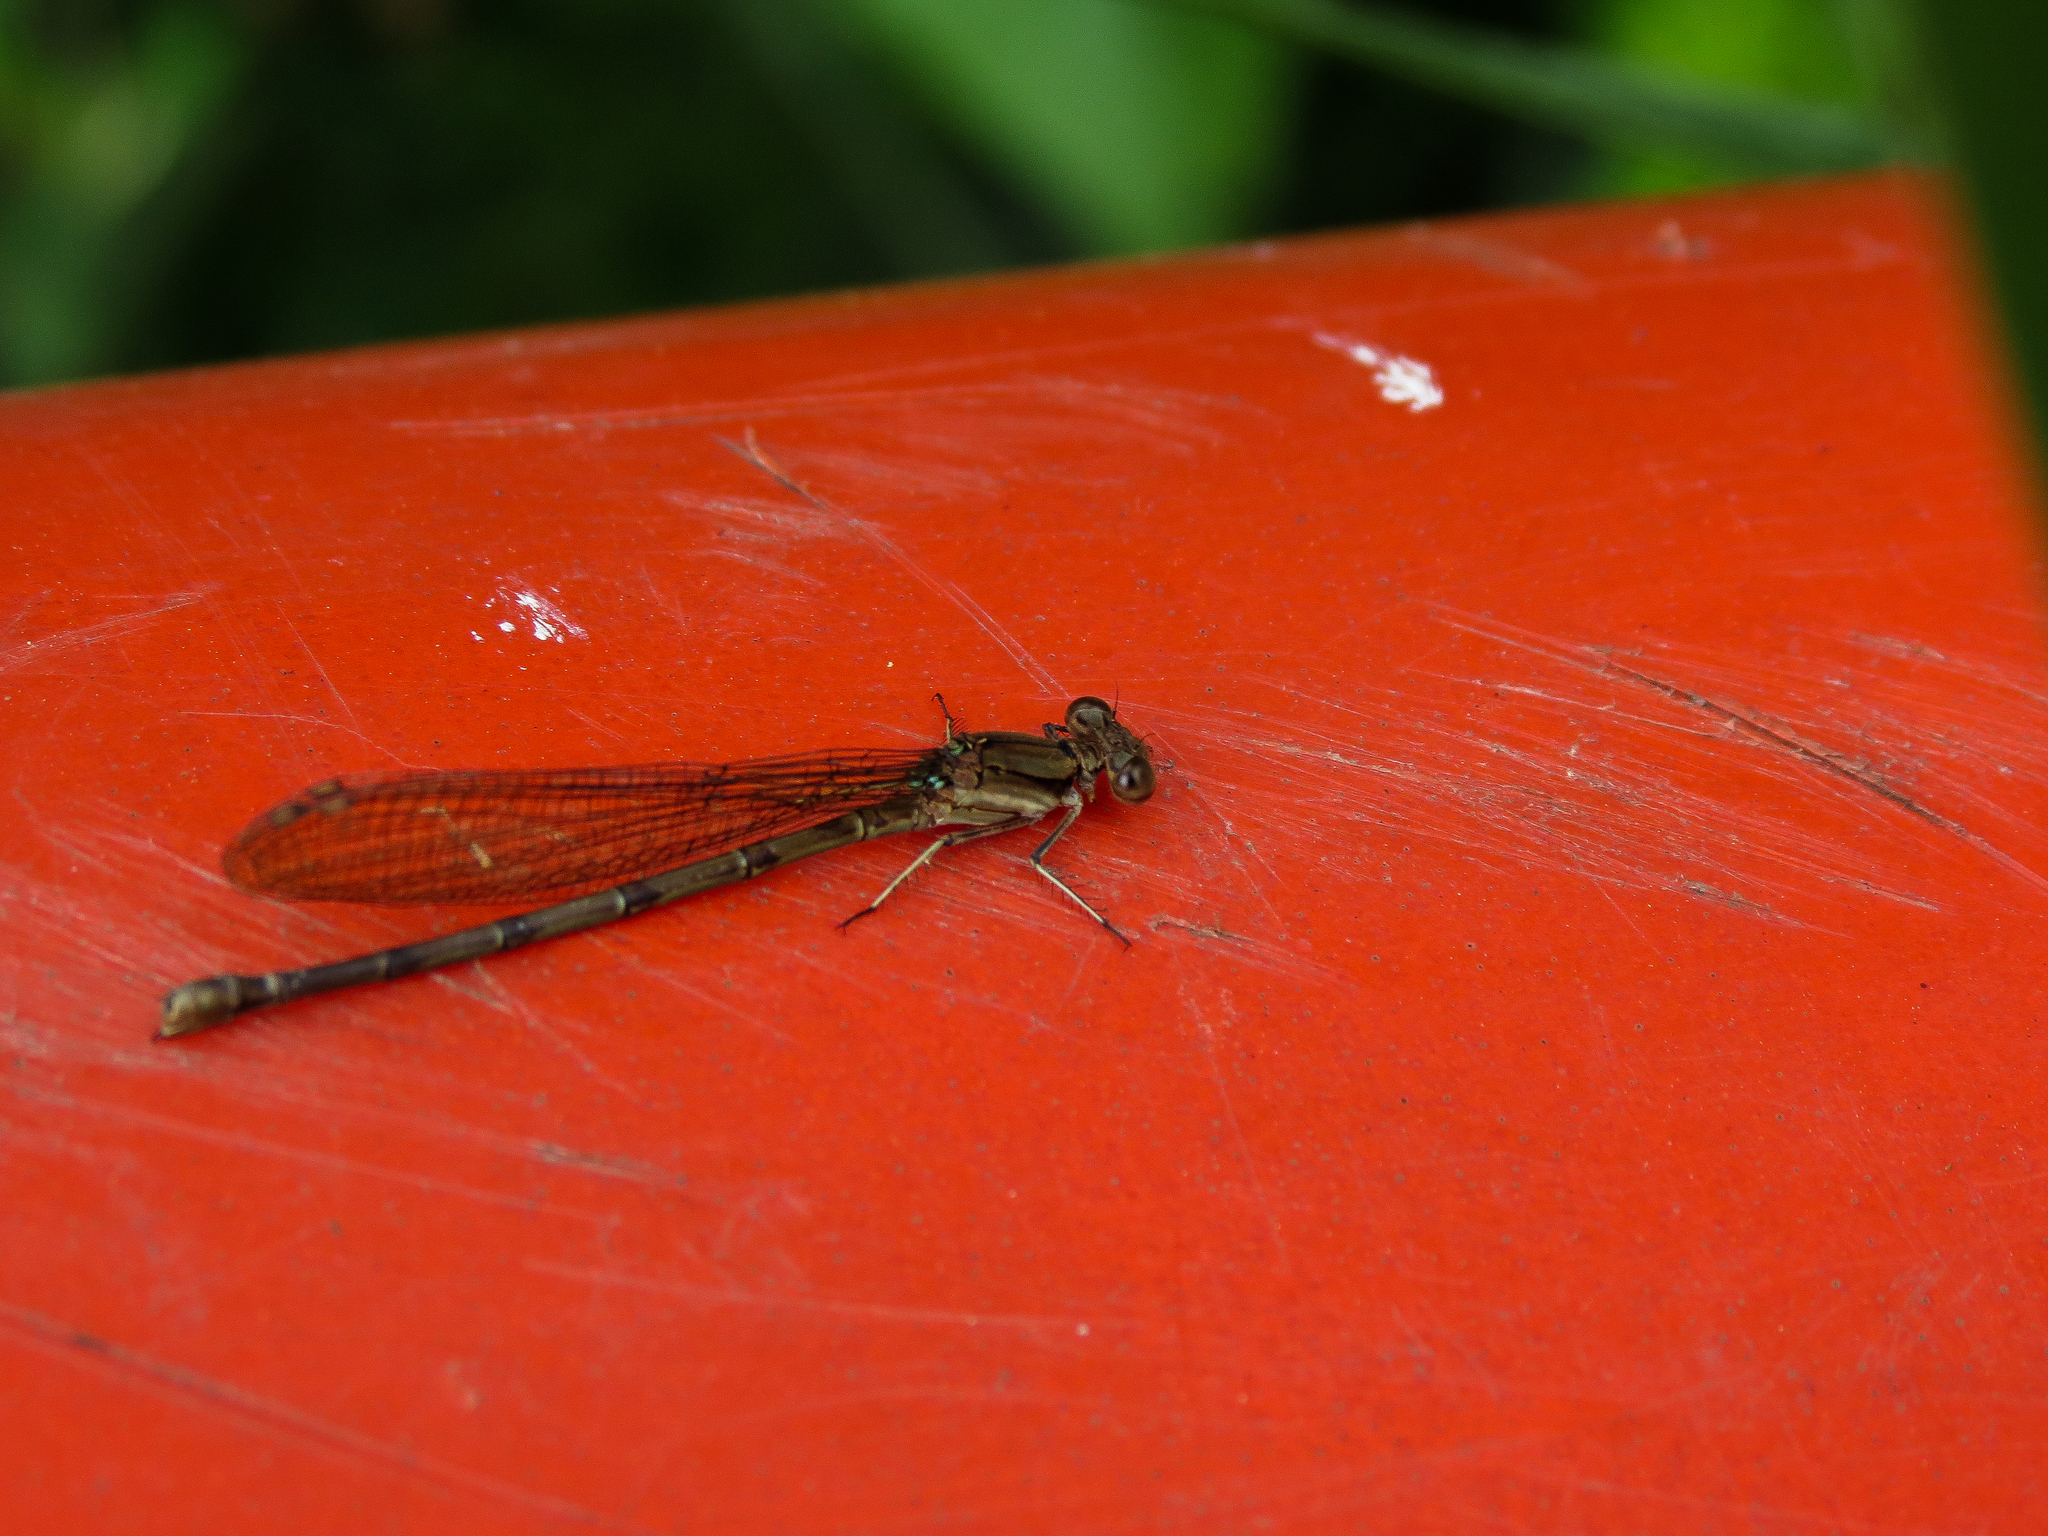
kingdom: Animalia
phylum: Arthropoda
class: Insecta
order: Odonata
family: Coenagrionidae
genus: Argia
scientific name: Argia anceps
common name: Cerulean dancer
